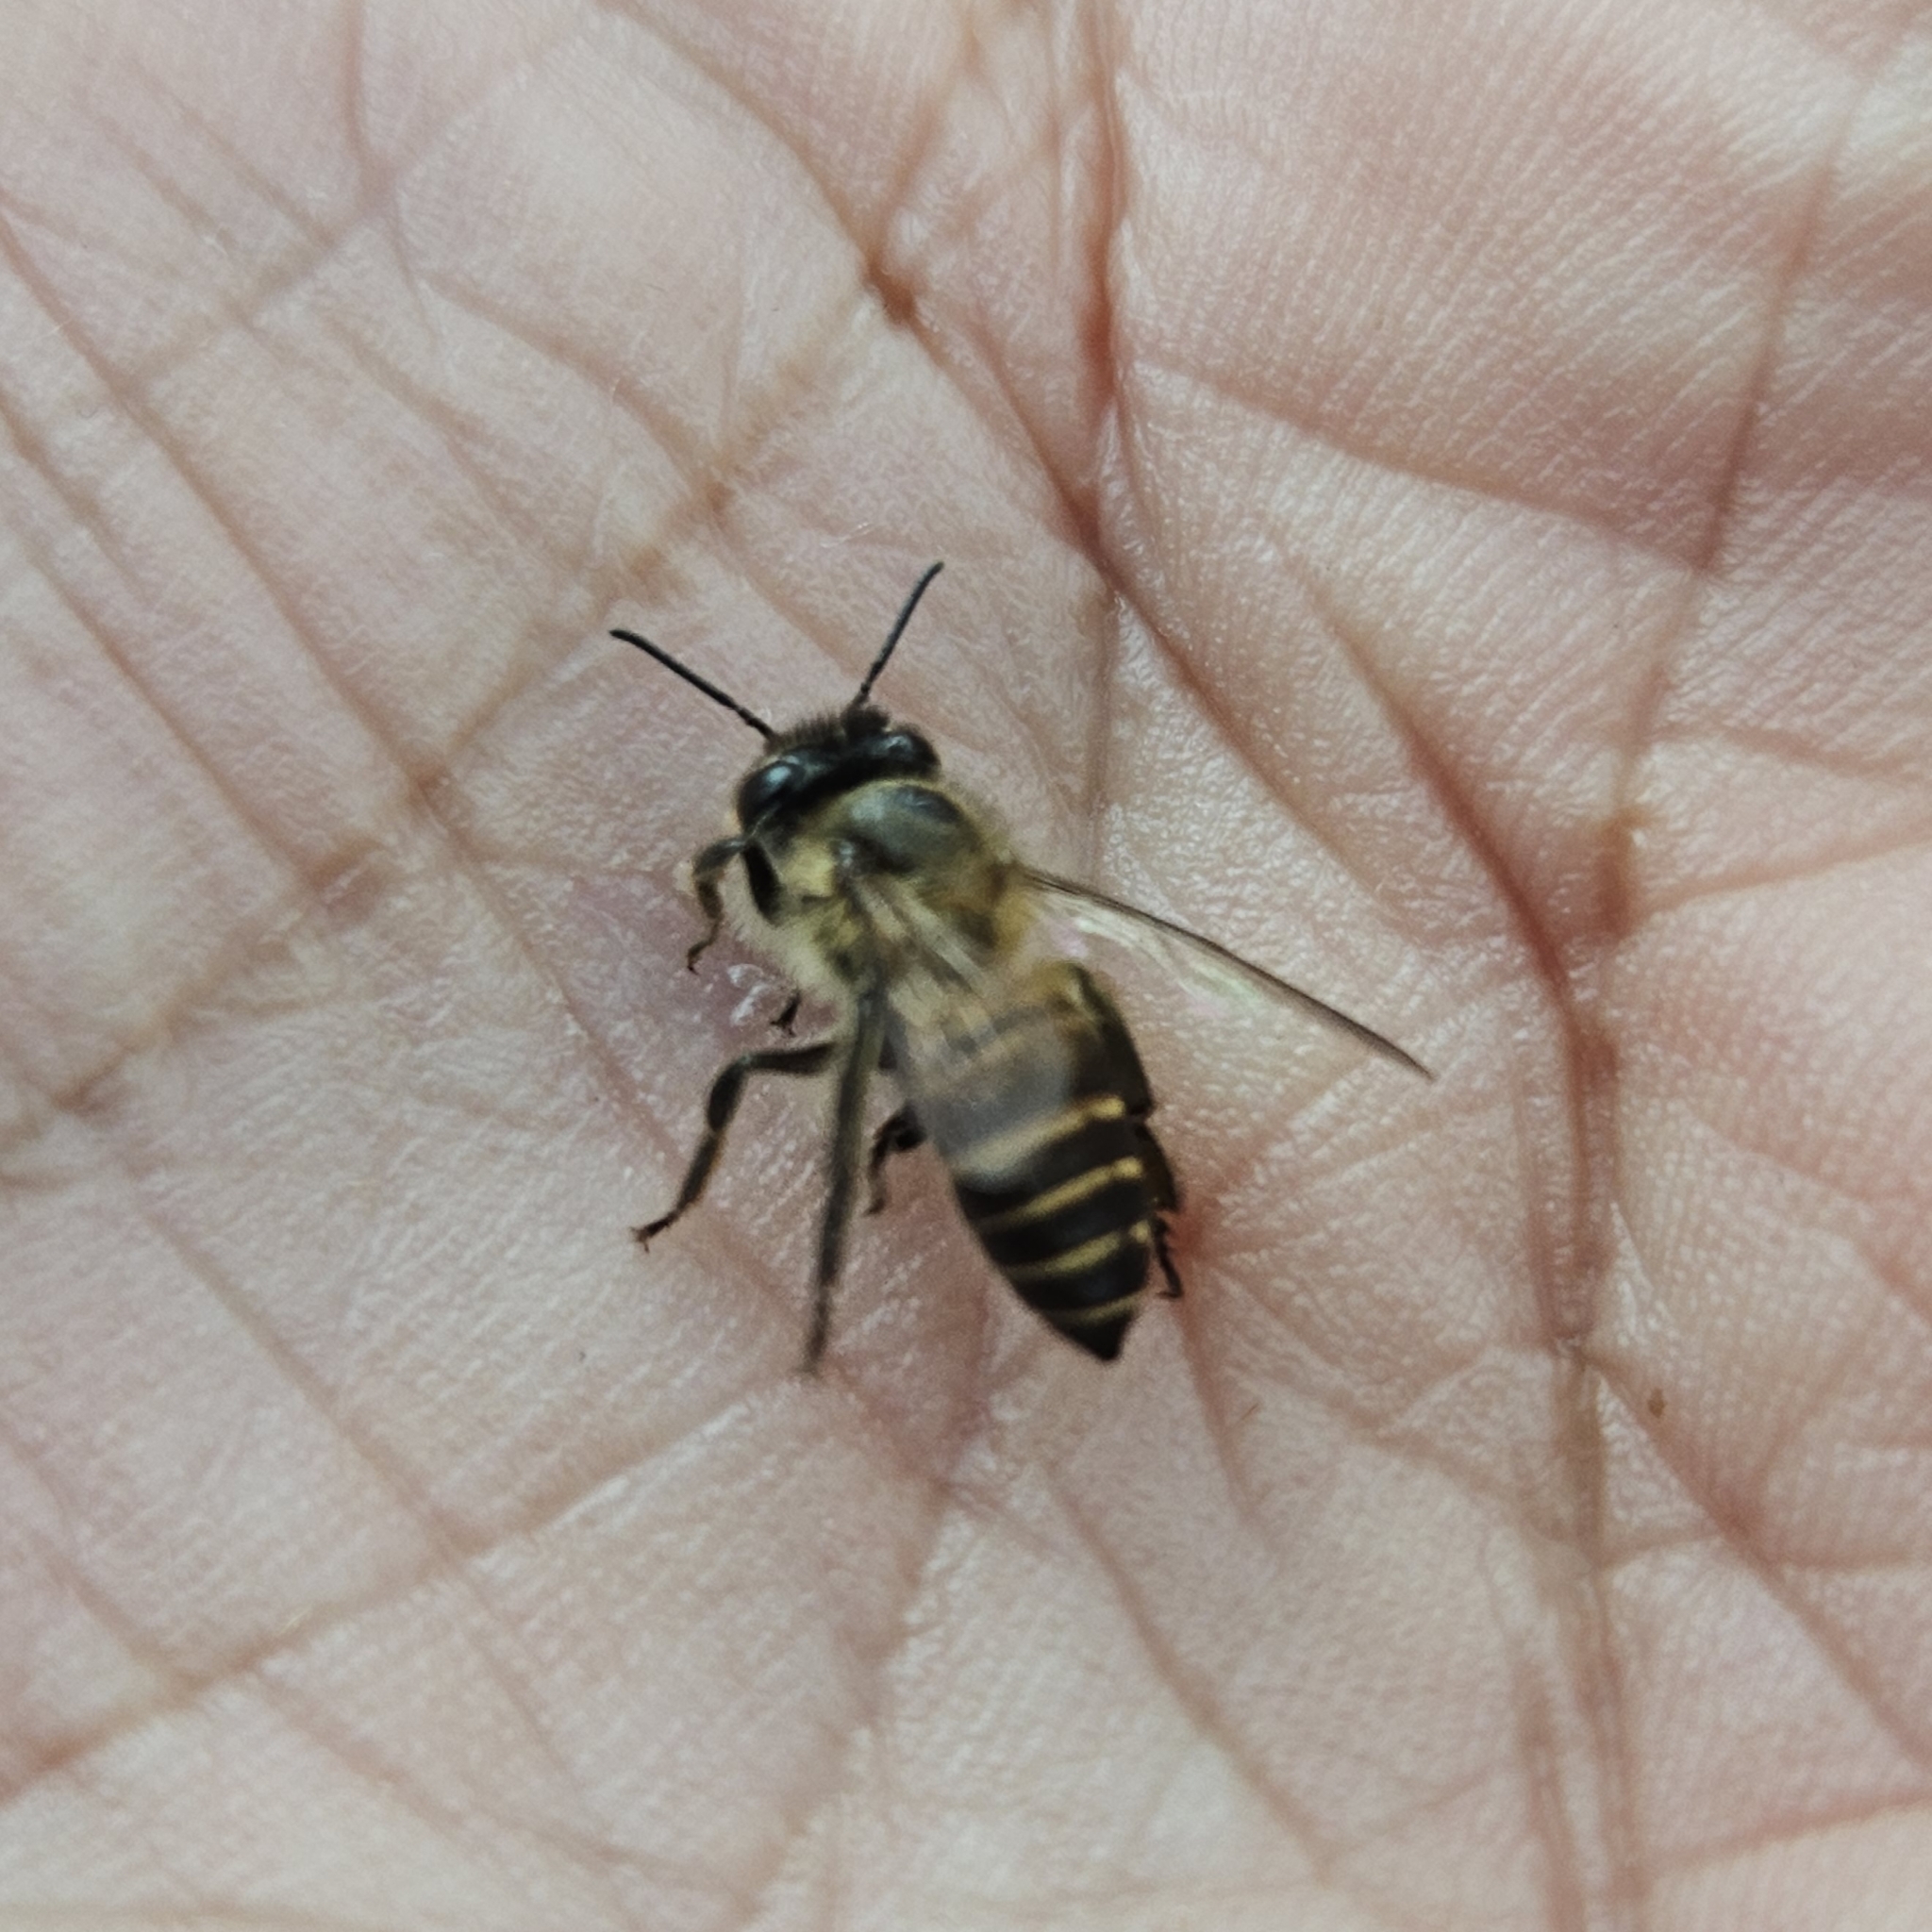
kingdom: Animalia
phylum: Arthropoda
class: Insecta
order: Hymenoptera
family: Apidae
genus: Apis
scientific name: Apis cerana
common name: Honey bee
